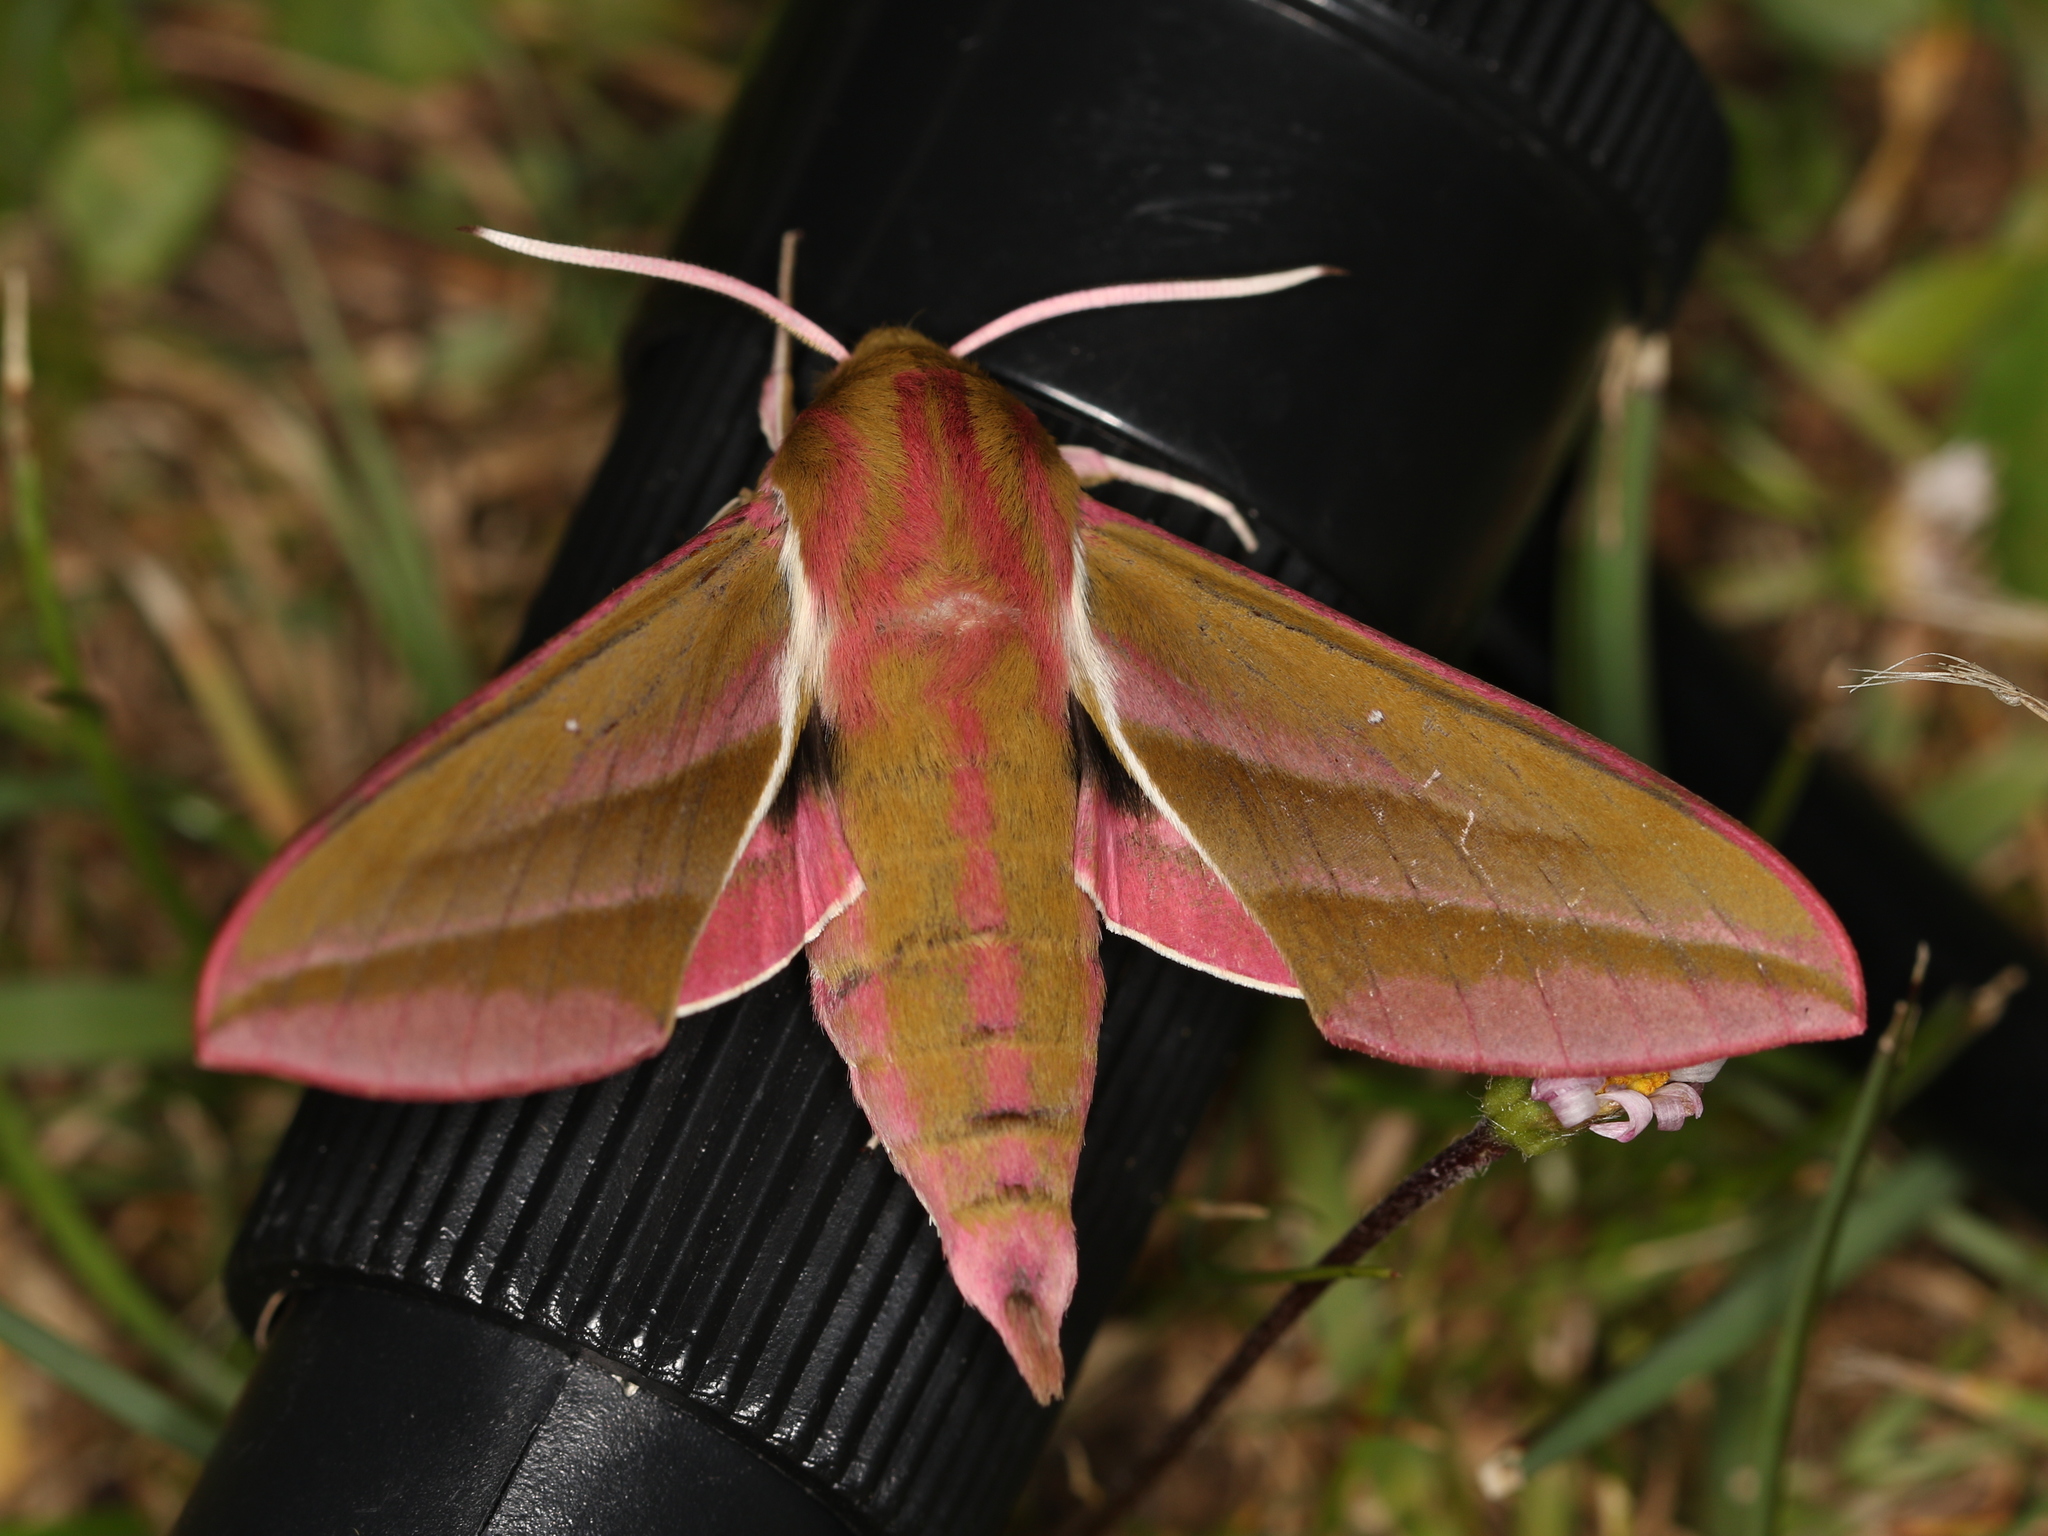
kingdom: Animalia
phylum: Arthropoda
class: Insecta
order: Lepidoptera
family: Sphingidae
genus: Deilephila
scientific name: Deilephila elpenor
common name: Elephant hawk-moth
